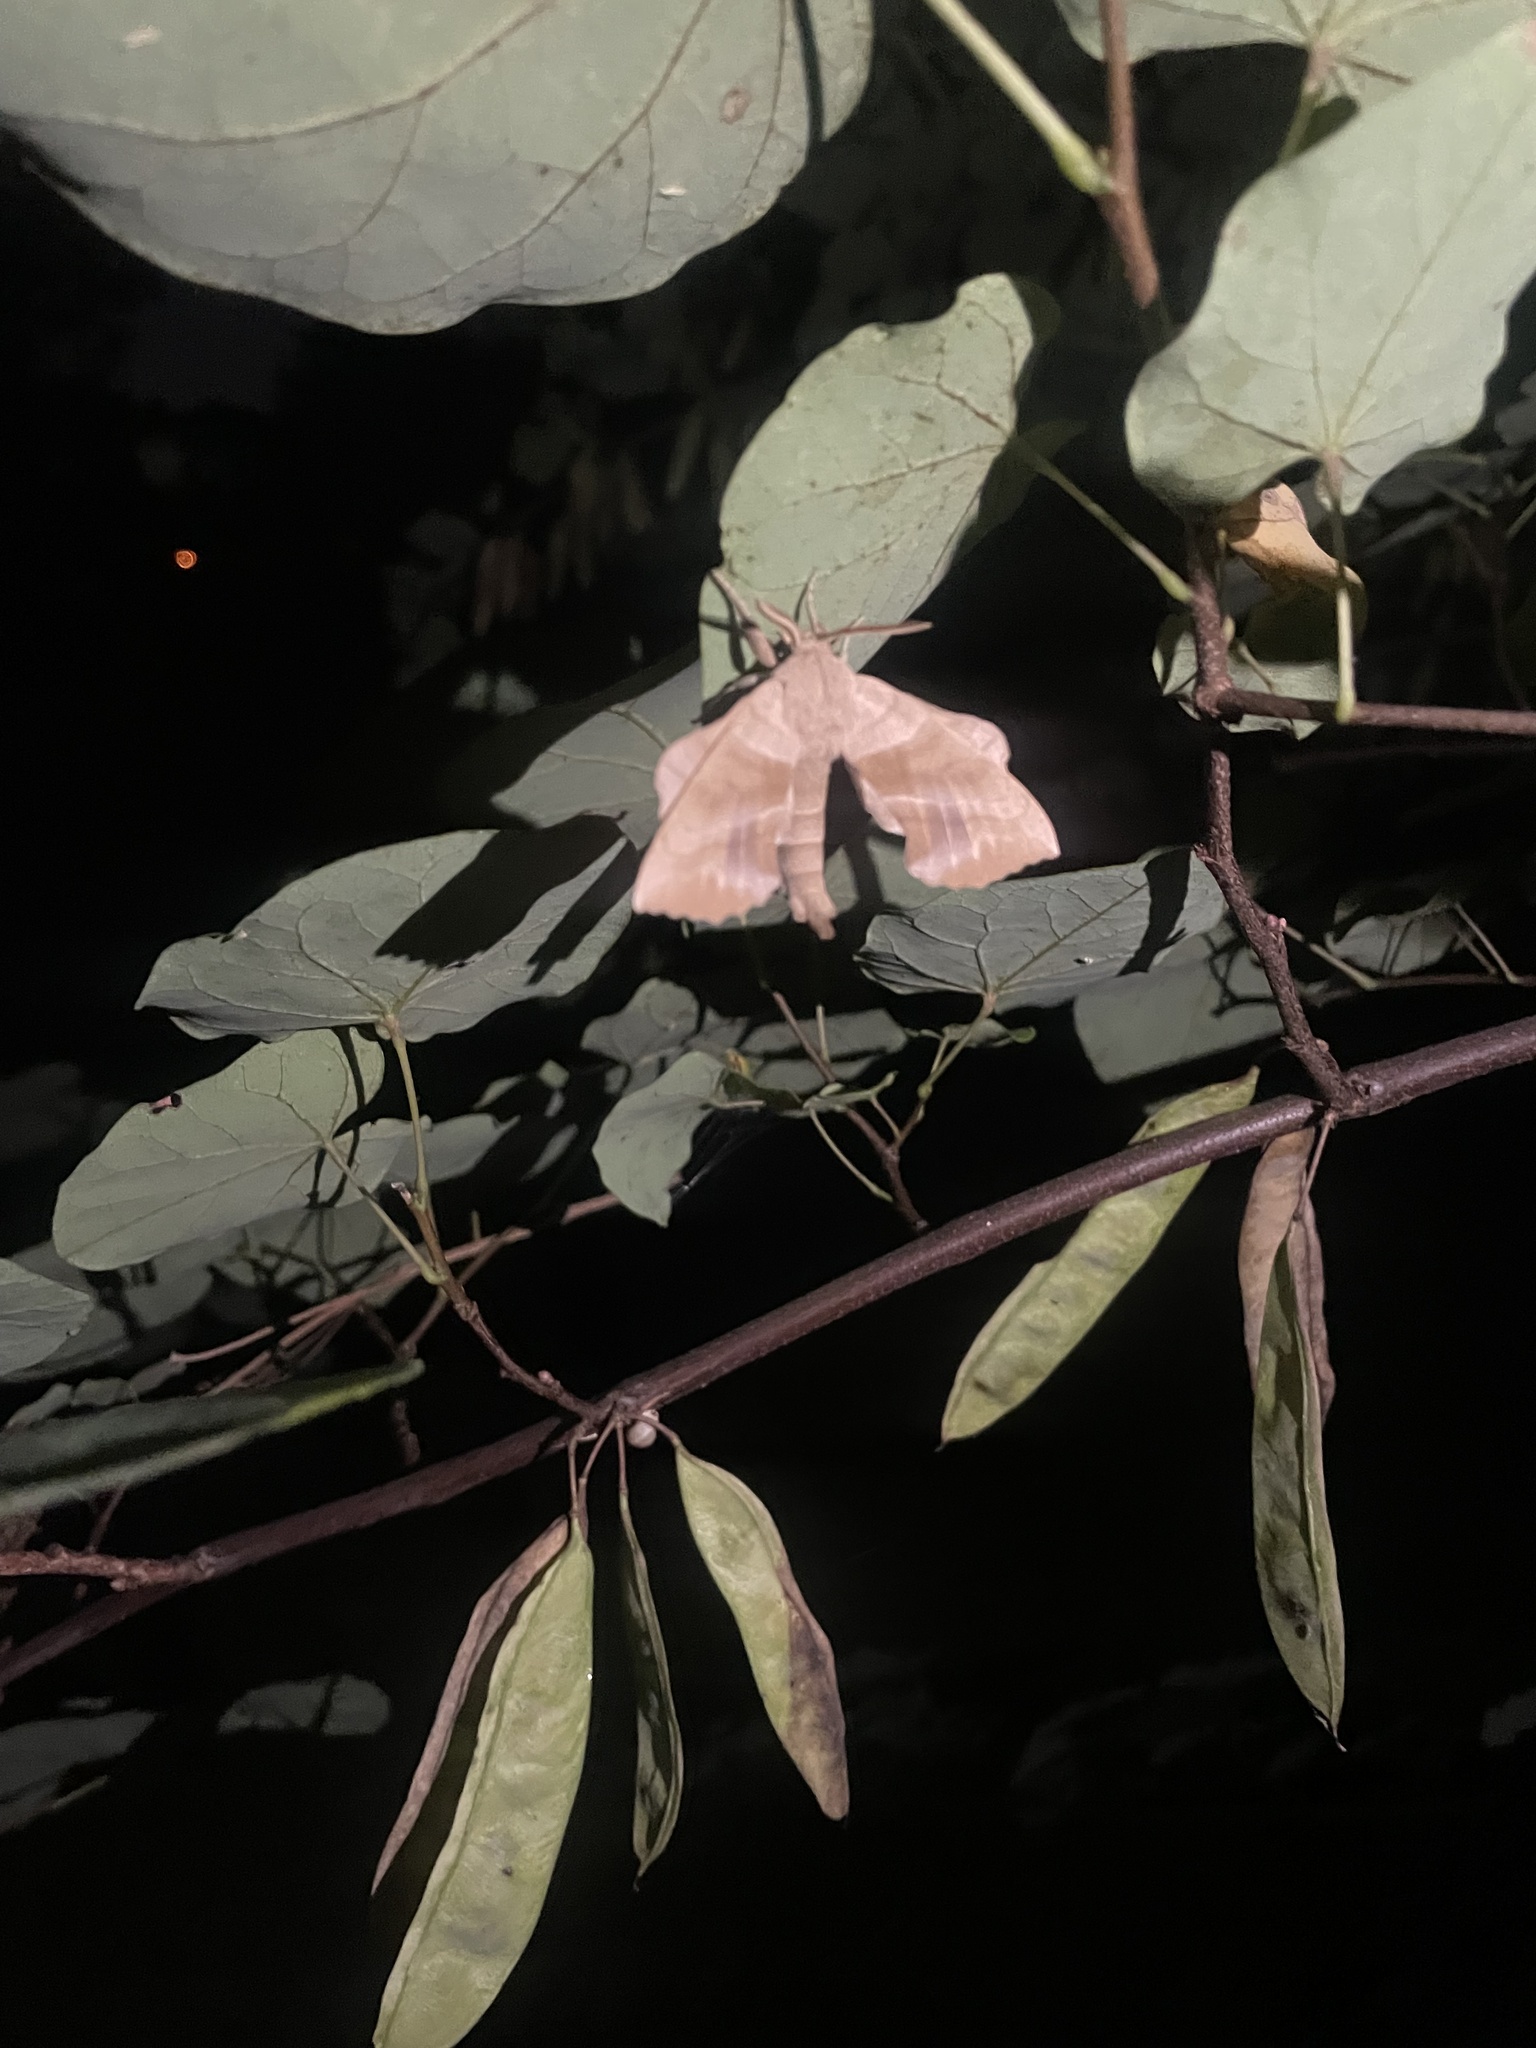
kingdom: Animalia
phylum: Arthropoda
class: Insecta
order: Lepidoptera
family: Sphingidae
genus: Amorpha
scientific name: Amorpha juglandis
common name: Walnut sphinx
